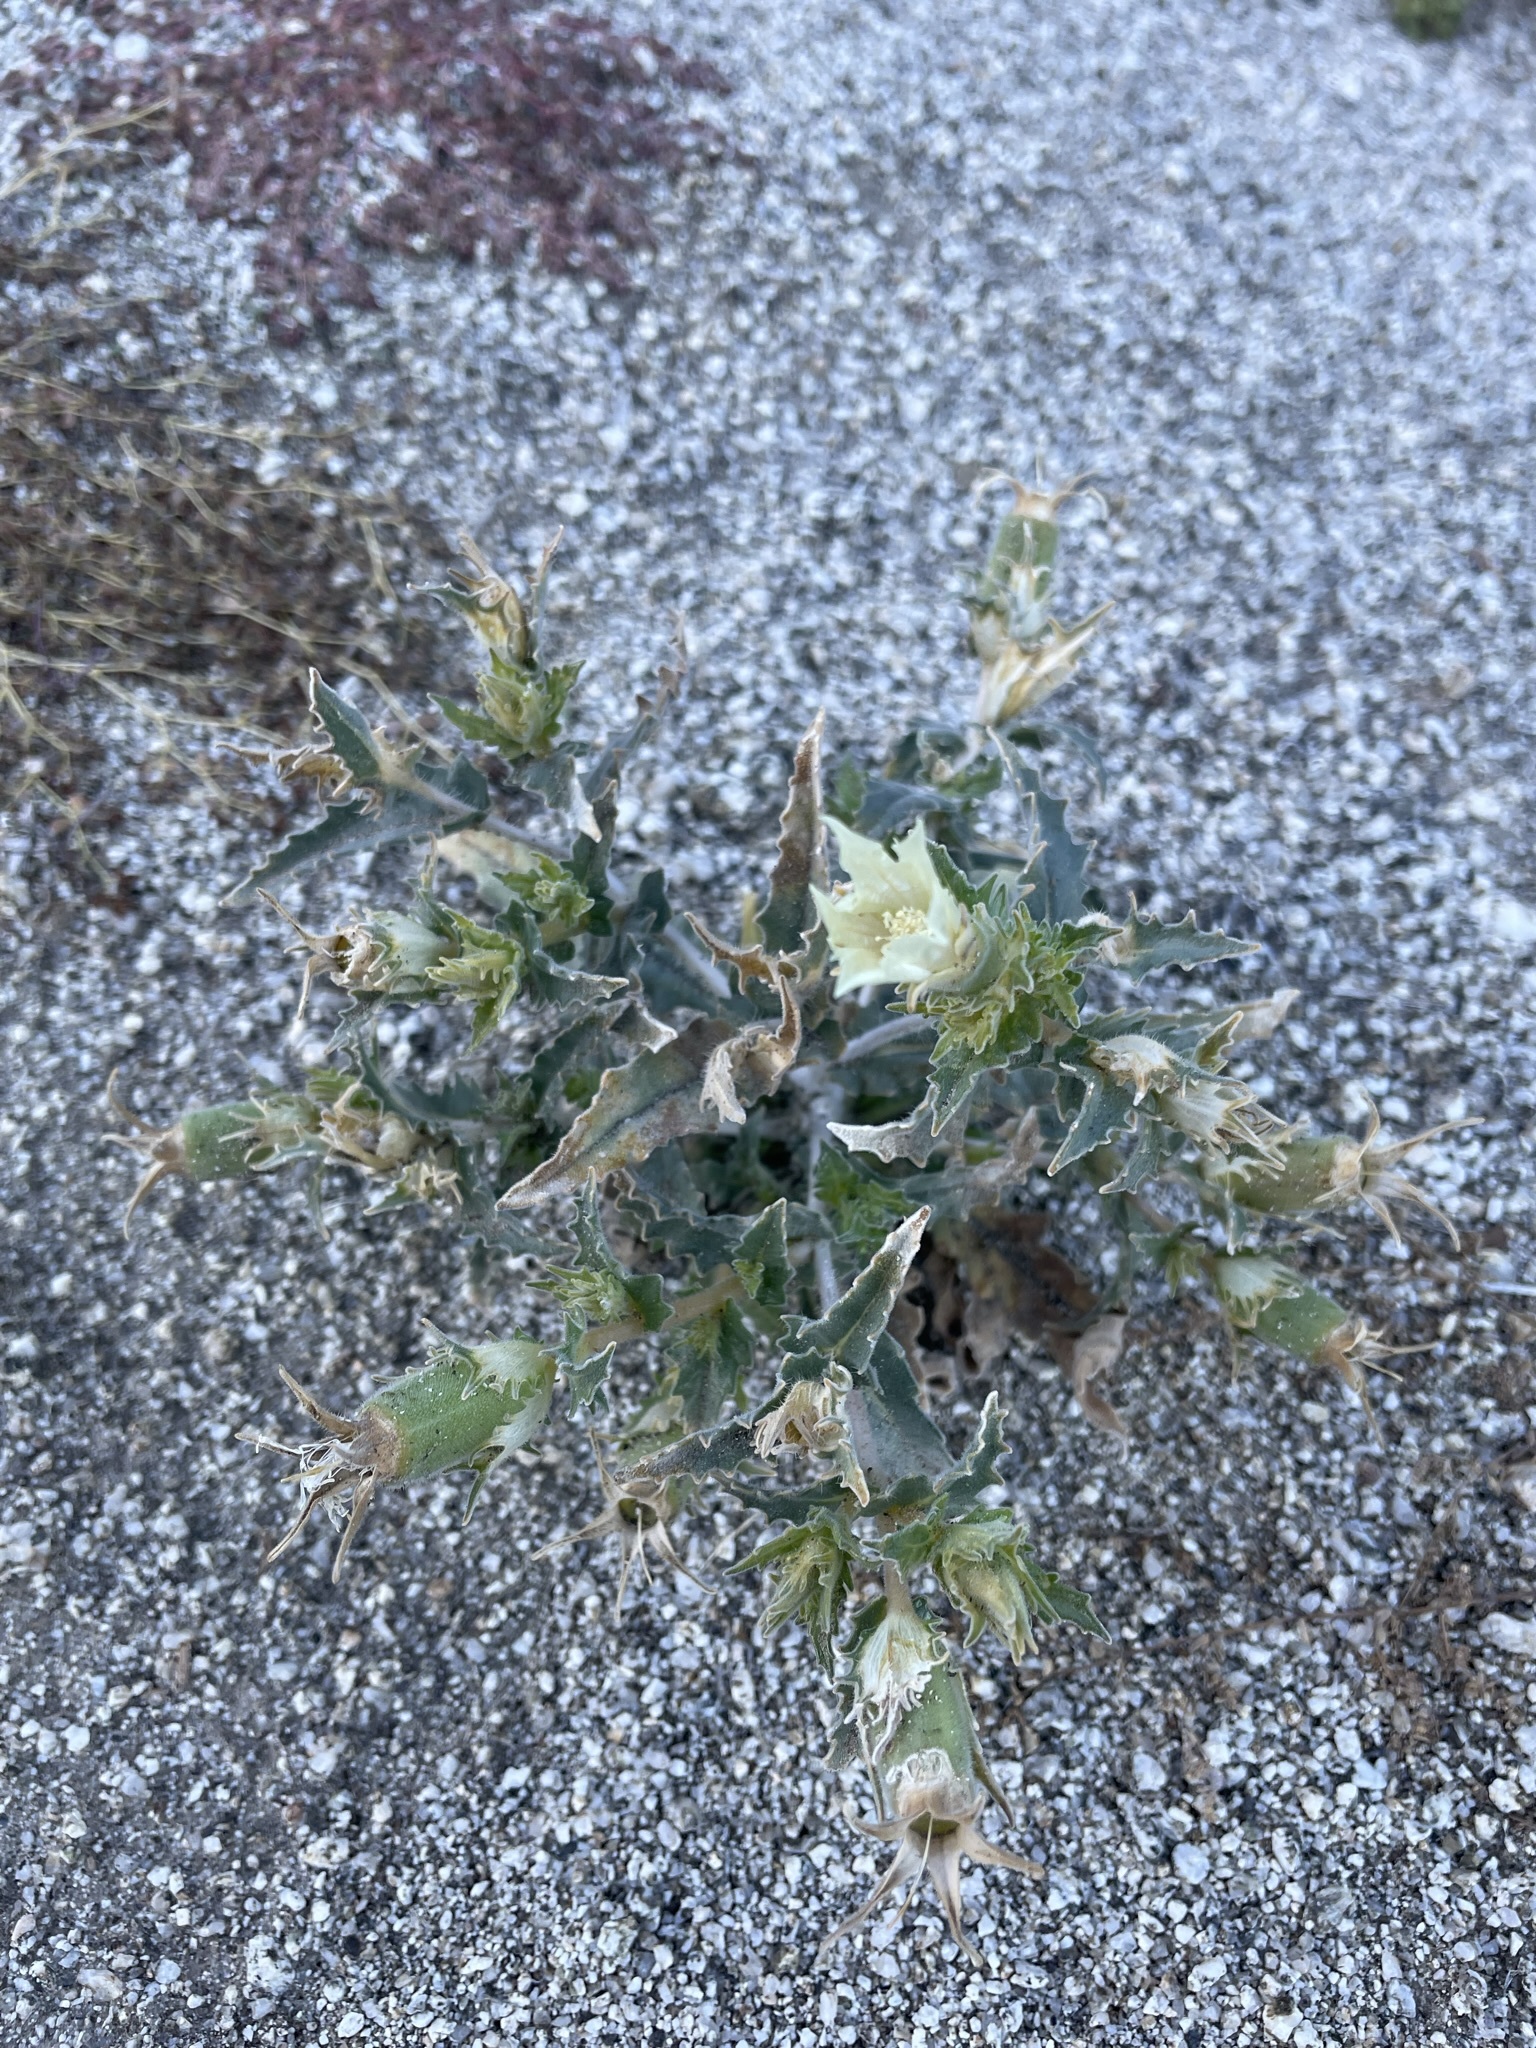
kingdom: Plantae
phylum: Tracheophyta
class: Magnoliopsida
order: Cornales
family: Loasaceae
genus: Mentzelia
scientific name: Mentzelia involucrata
